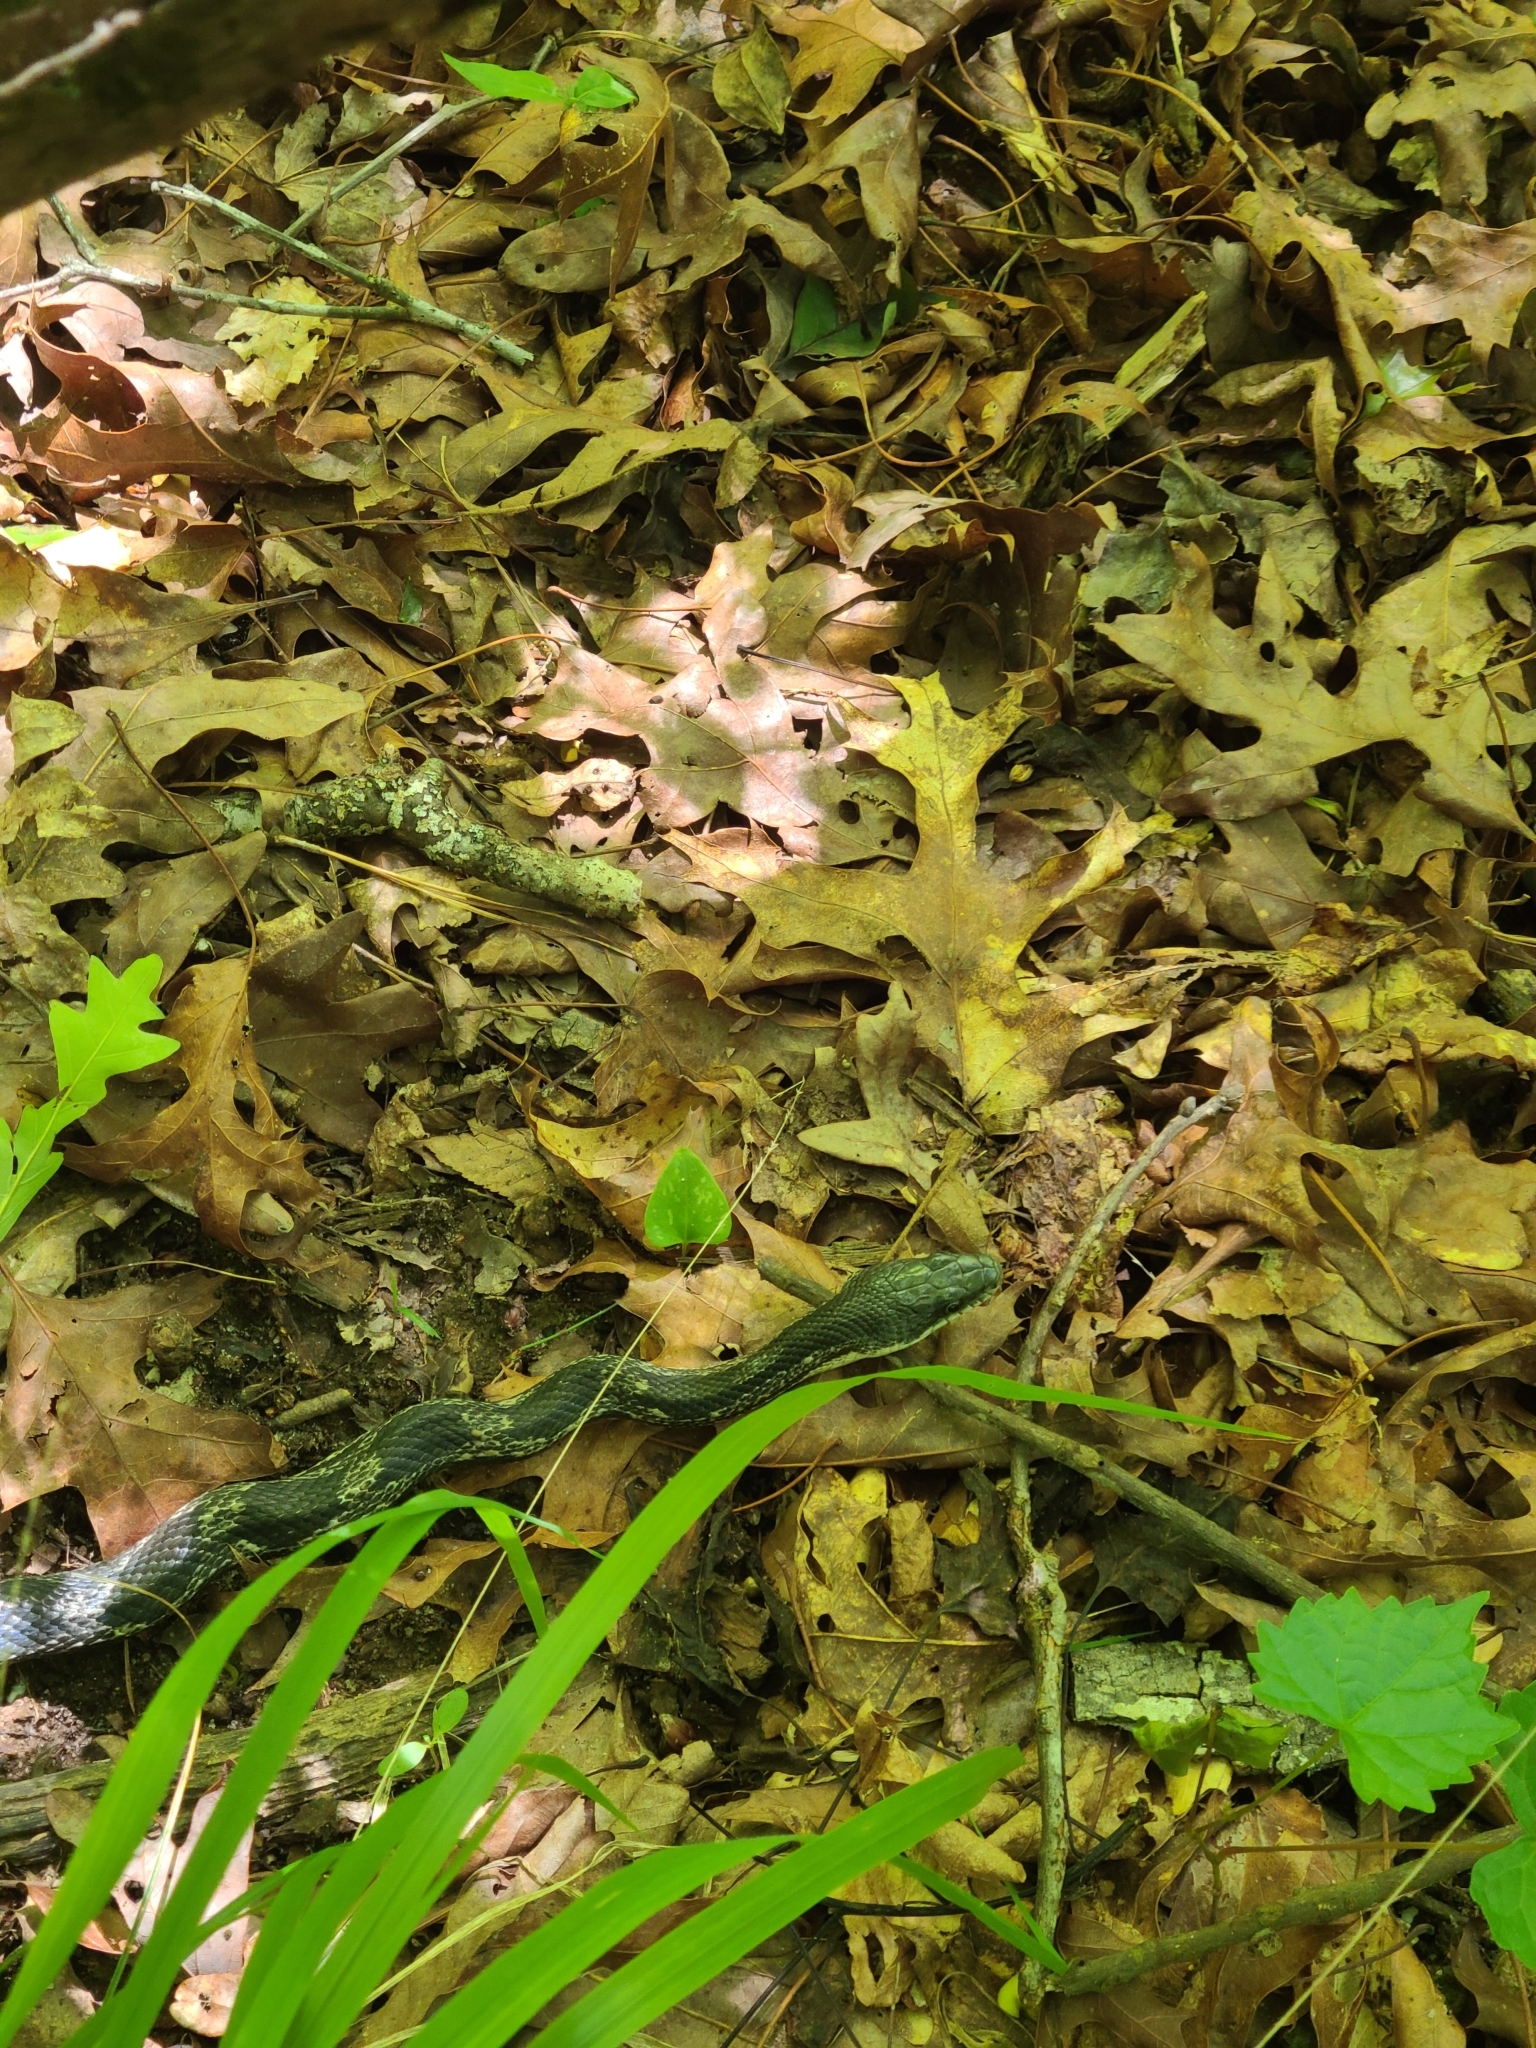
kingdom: Animalia
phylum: Chordata
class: Squamata
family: Colubridae
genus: Pantherophis
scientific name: Pantherophis spiloides
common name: Gray rat snake
